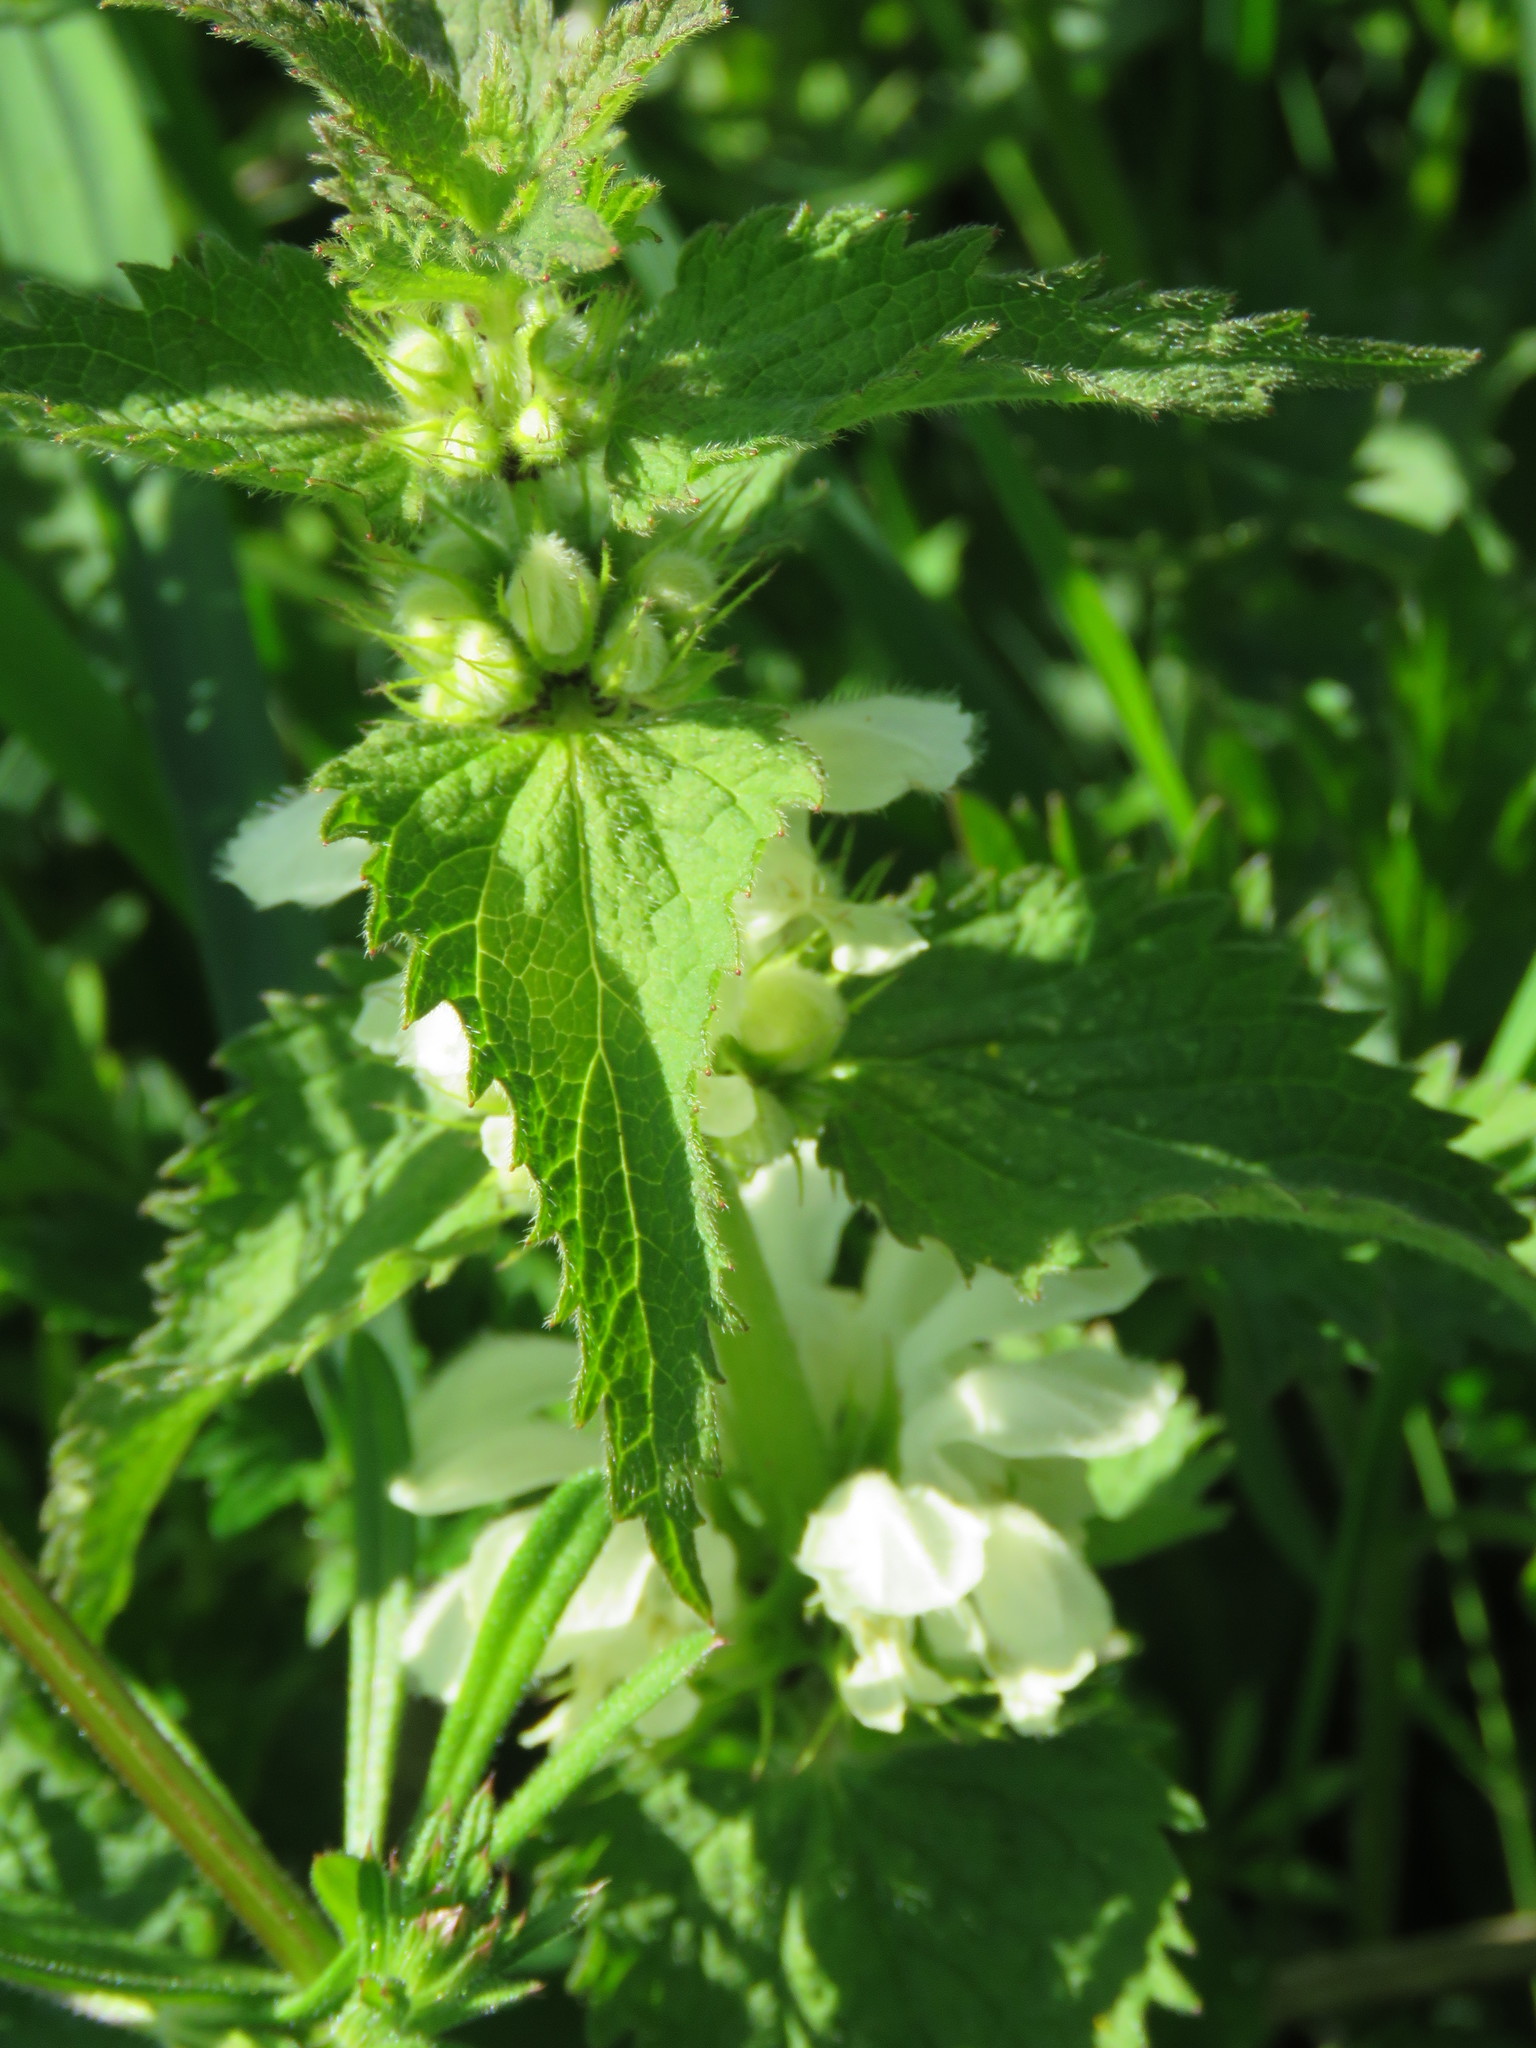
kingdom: Plantae
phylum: Tracheophyta
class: Magnoliopsida
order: Lamiales
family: Lamiaceae
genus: Lamium
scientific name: Lamium album
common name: White dead-nettle
